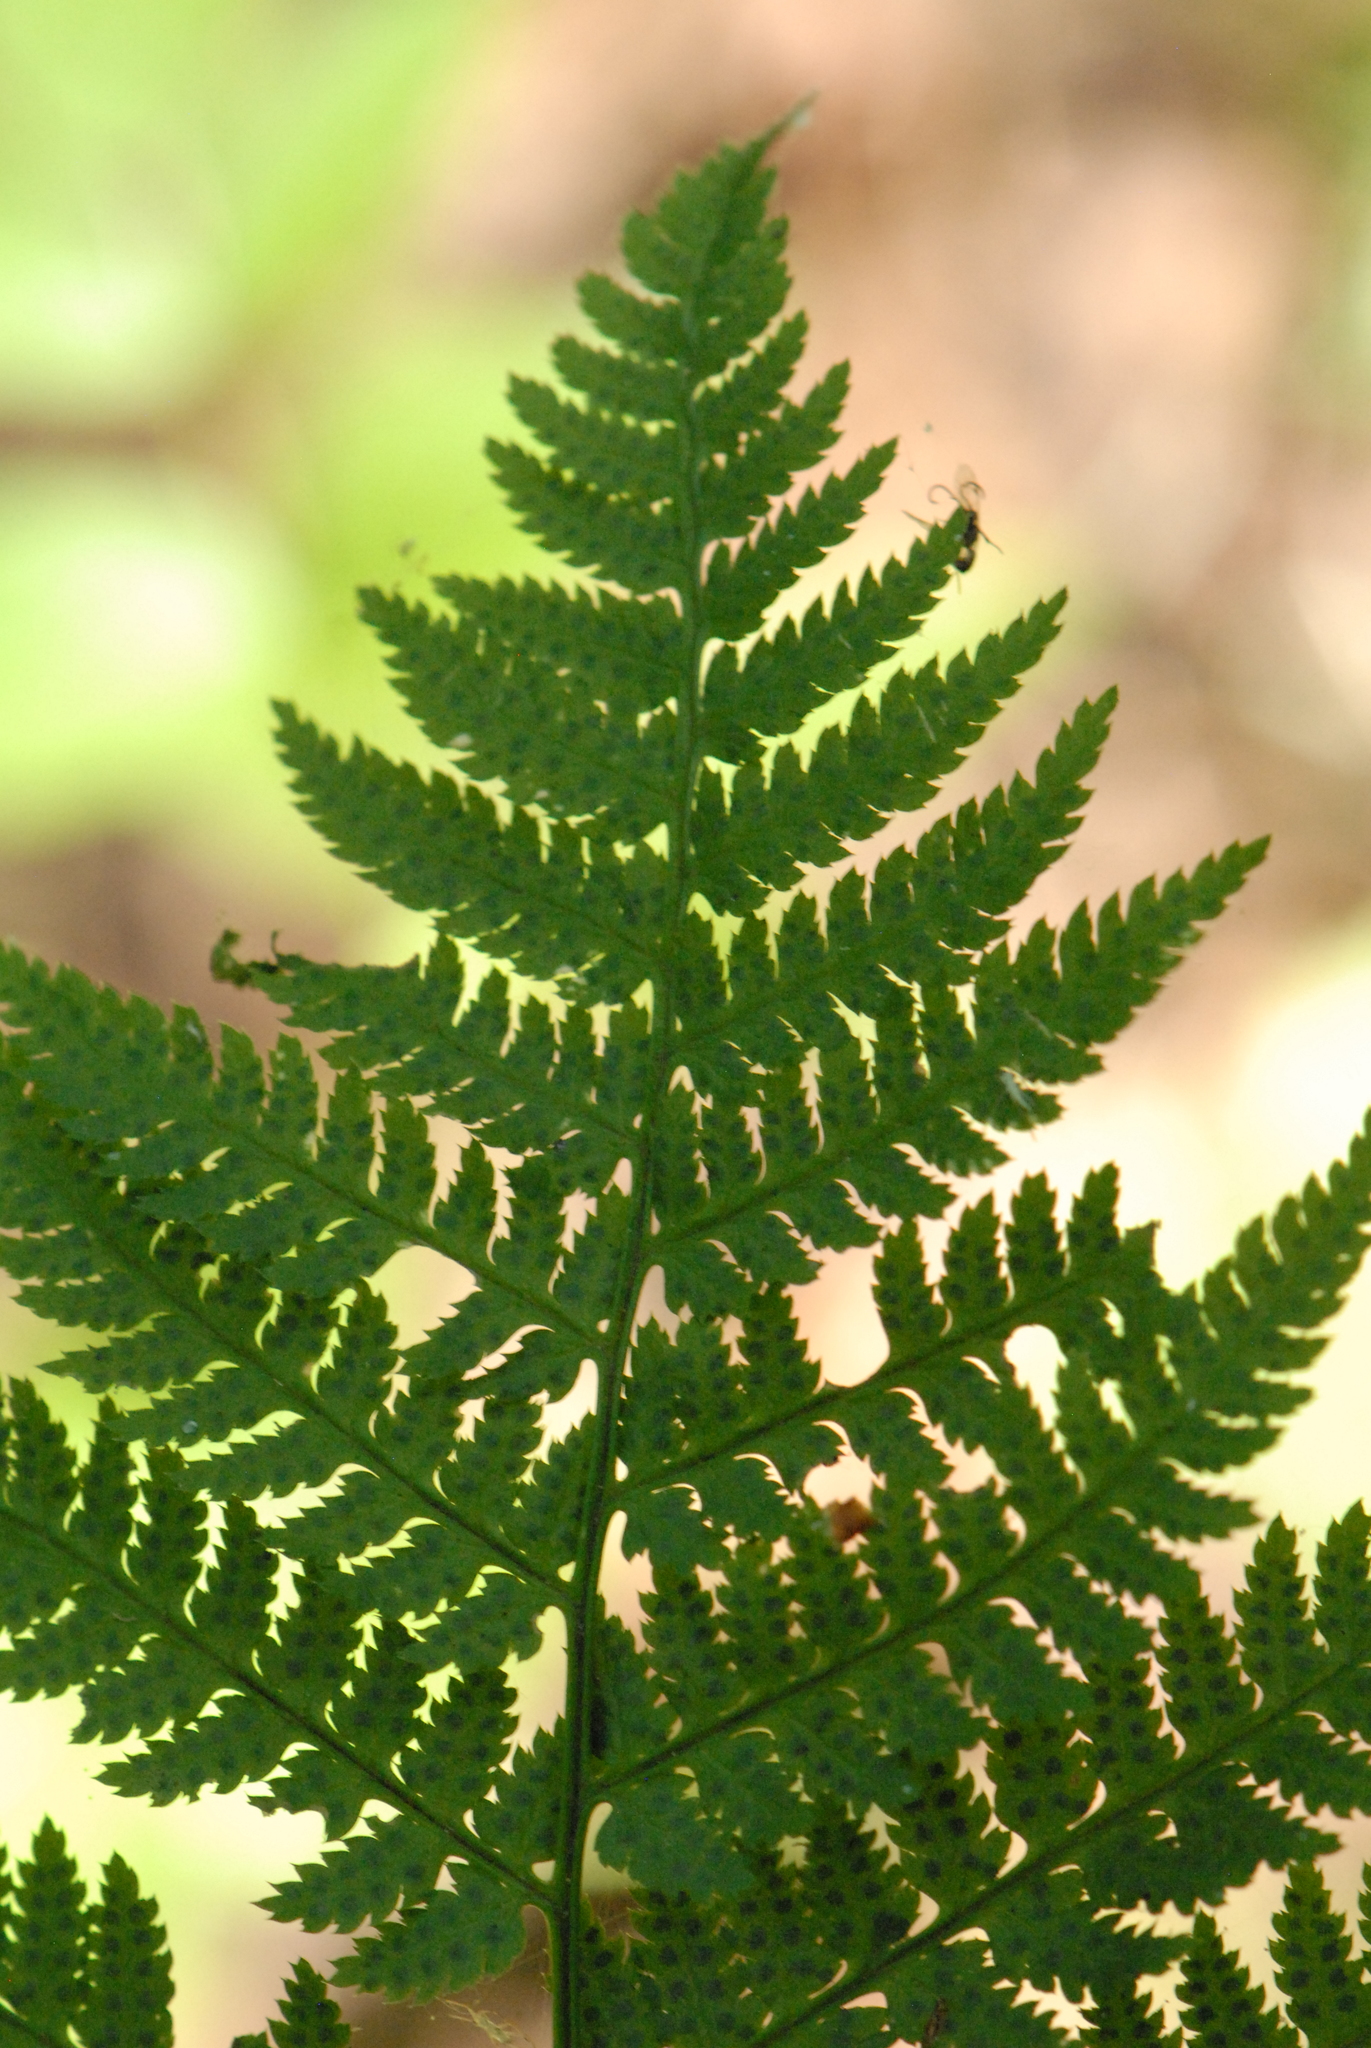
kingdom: Plantae
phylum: Tracheophyta
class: Polypodiopsida
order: Polypodiales
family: Dryopteridaceae
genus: Dryopteris
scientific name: Dryopteris carthusiana
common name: Narrow buckler-fern
